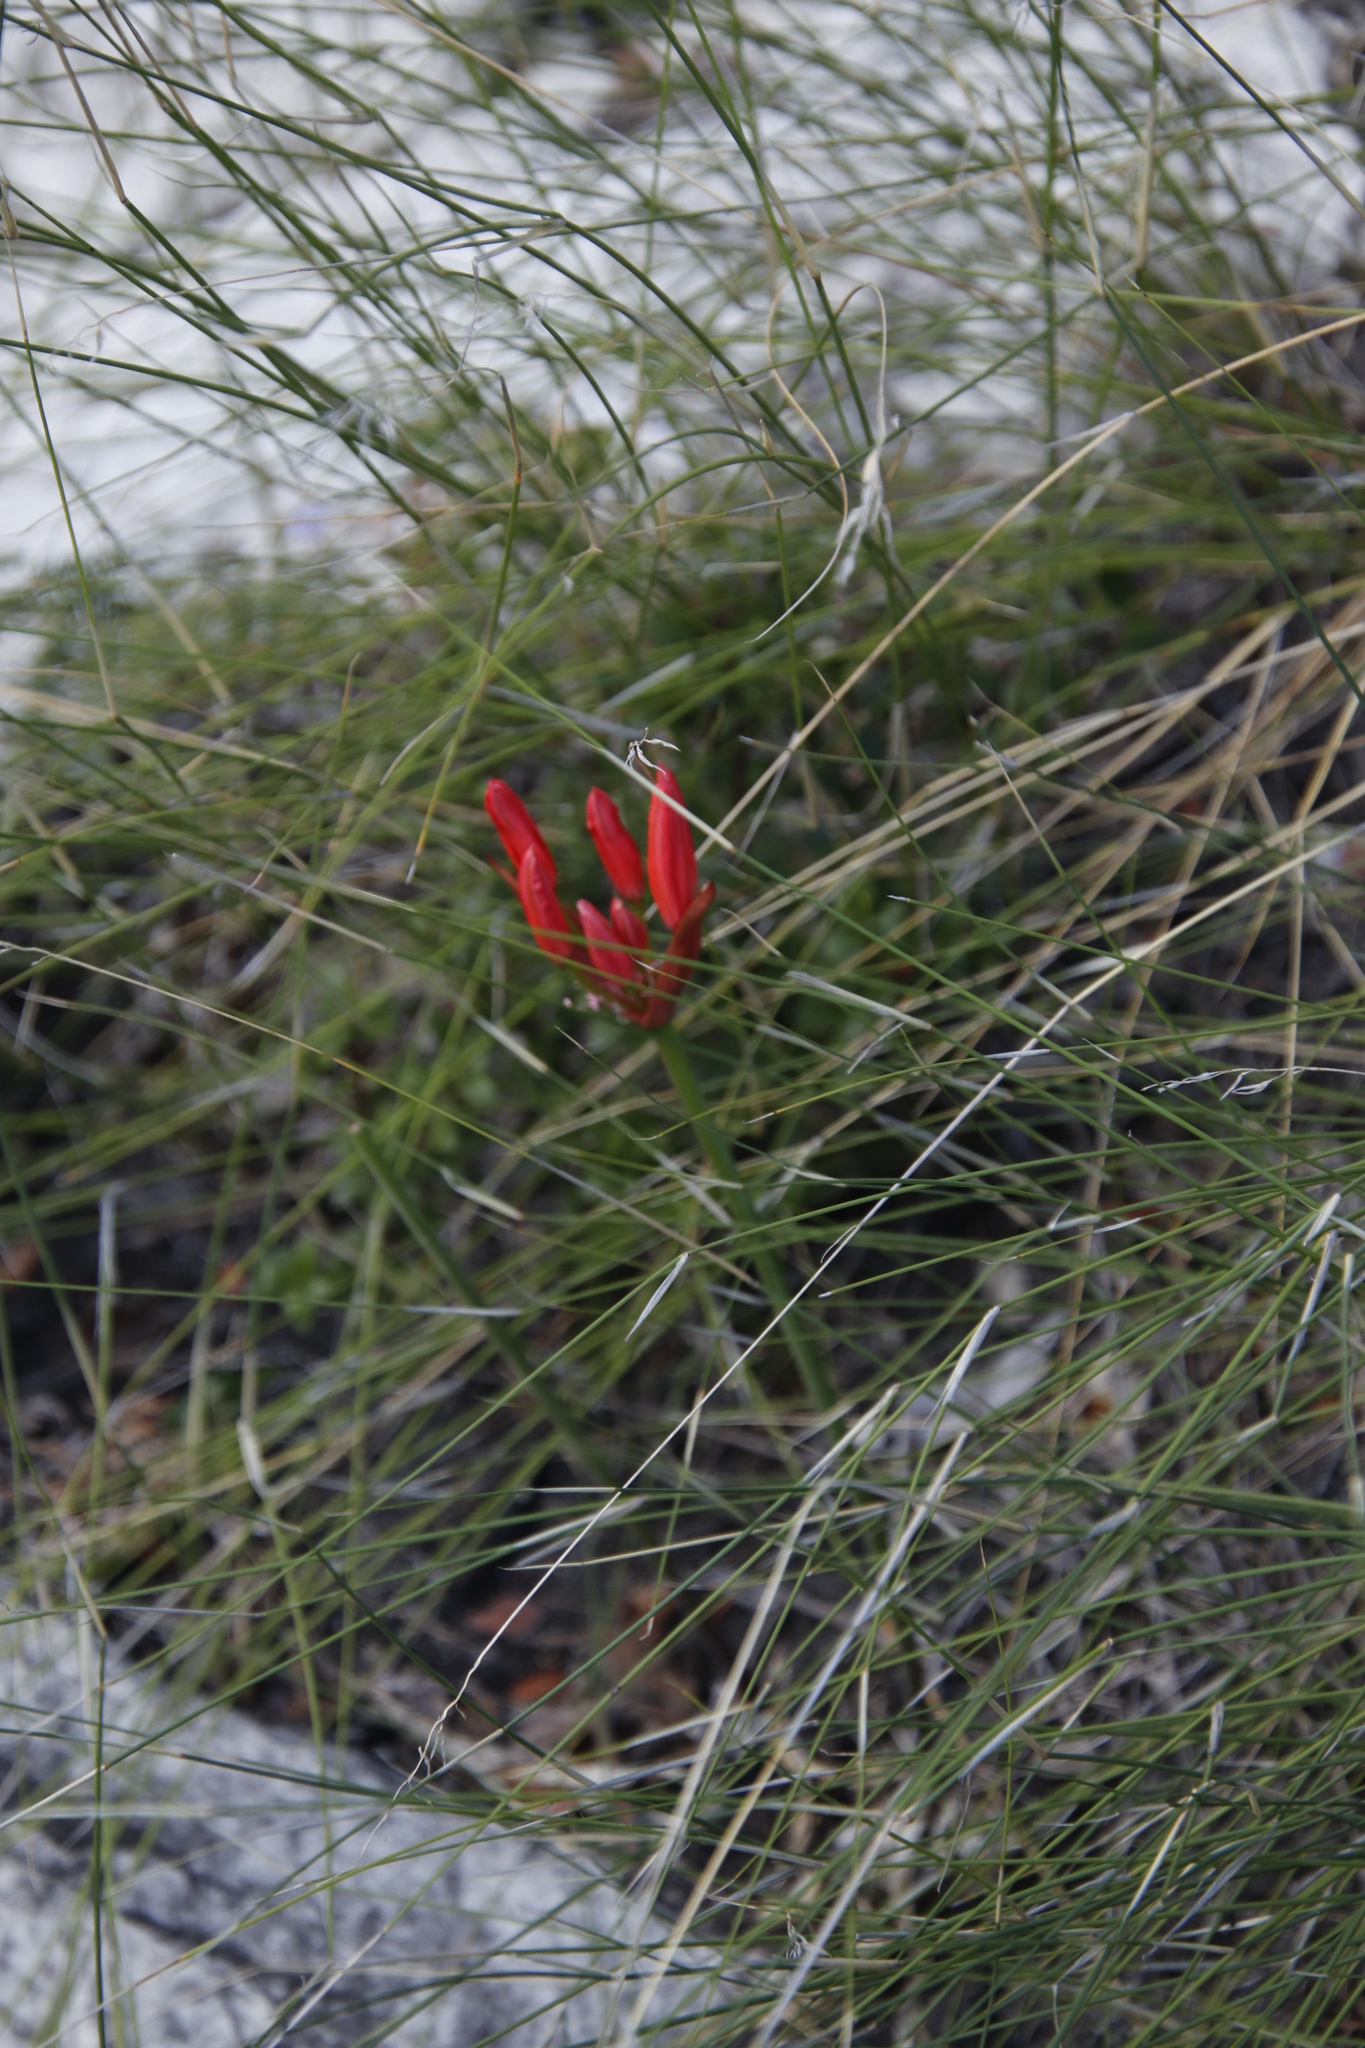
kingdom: Plantae
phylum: Tracheophyta
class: Liliopsida
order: Asparagales
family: Amaryllidaceae
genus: Nerine
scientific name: Nerine sarniensis
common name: Guernsey-lily
